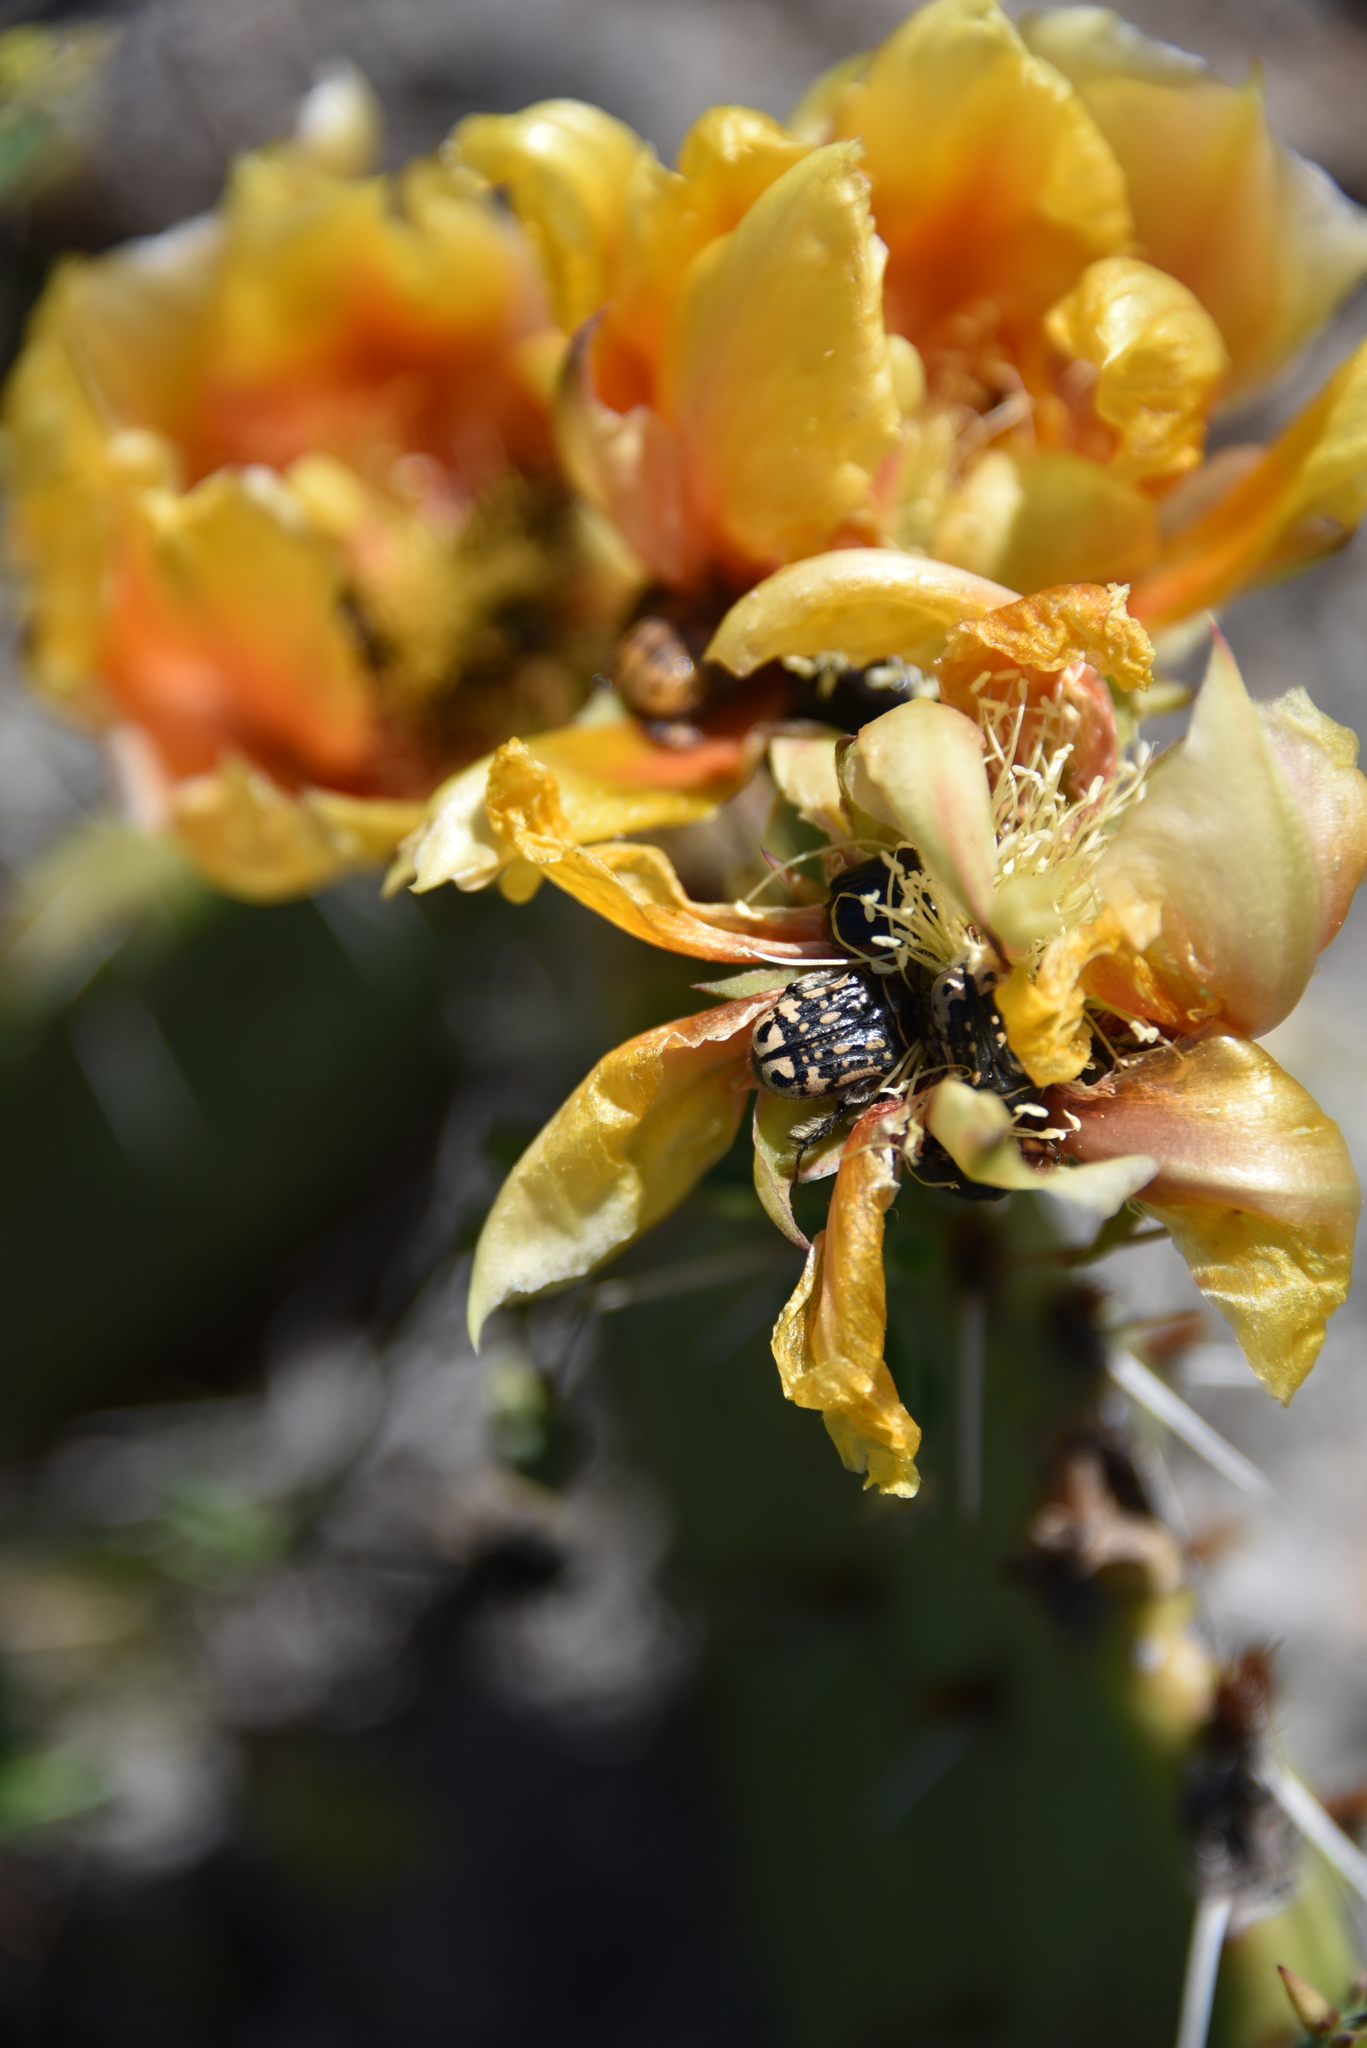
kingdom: Animalia
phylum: Arthropoda
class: Insecta
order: Coleoptera
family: Scarabaeidae
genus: Euphoria
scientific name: Euphoria kernii
